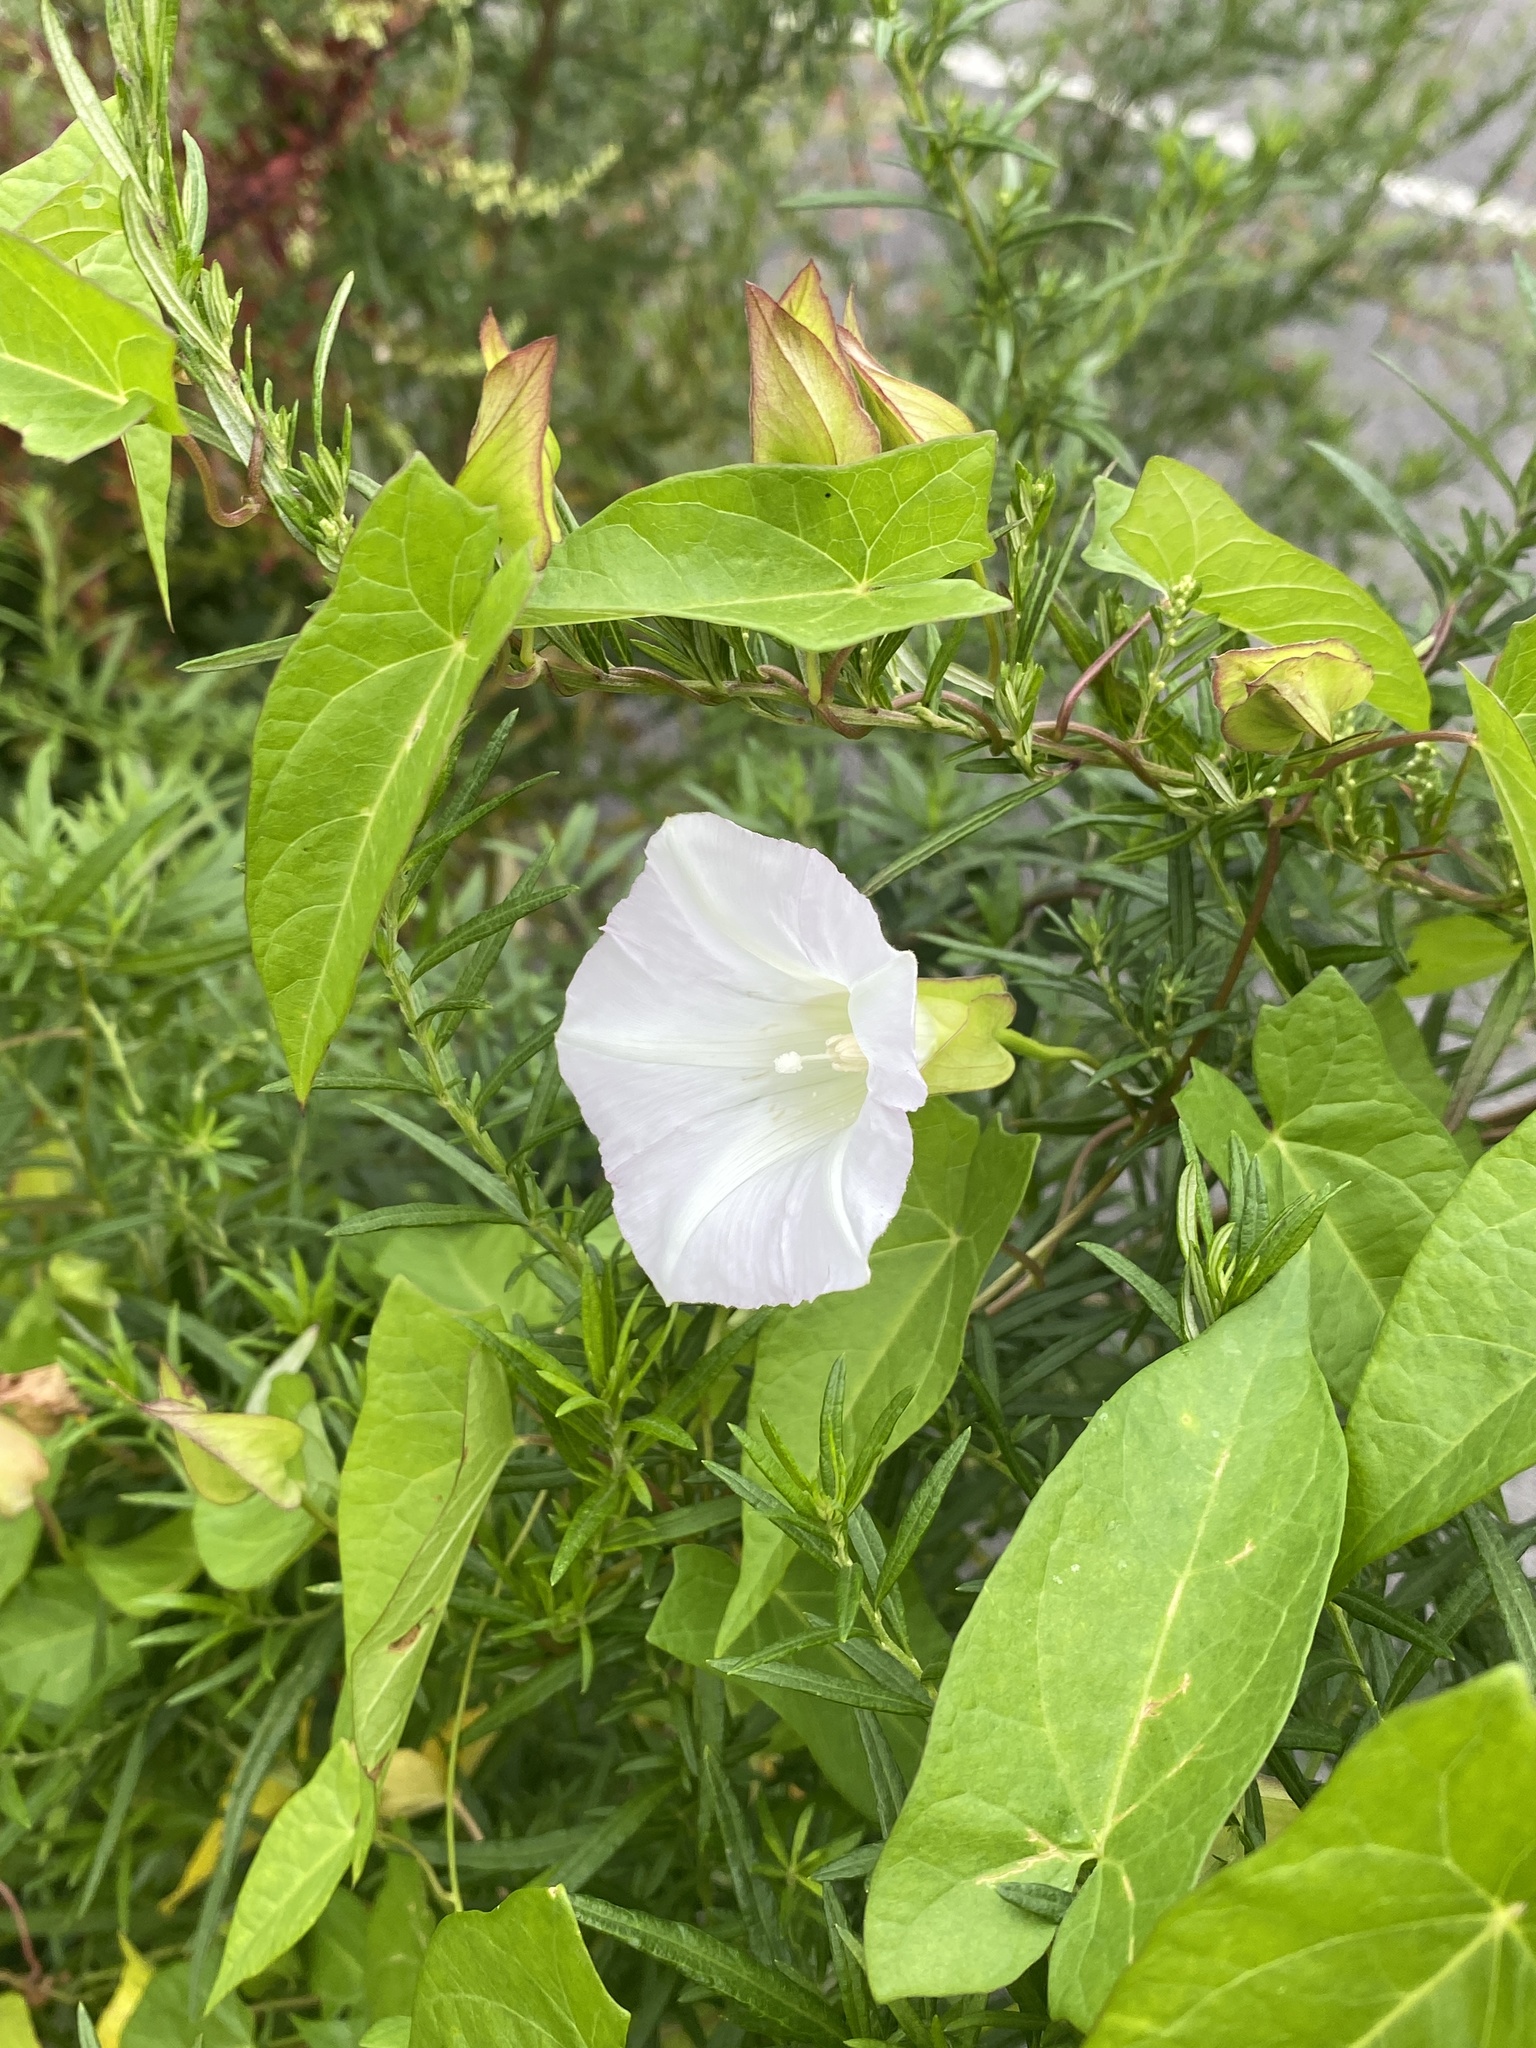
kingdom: Plantae
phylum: Tracheophyta
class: Magnoliopsida
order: Solanales
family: Convolvulaceae
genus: Calystegia
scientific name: Calystegia sepium
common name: Hedge bindweed
